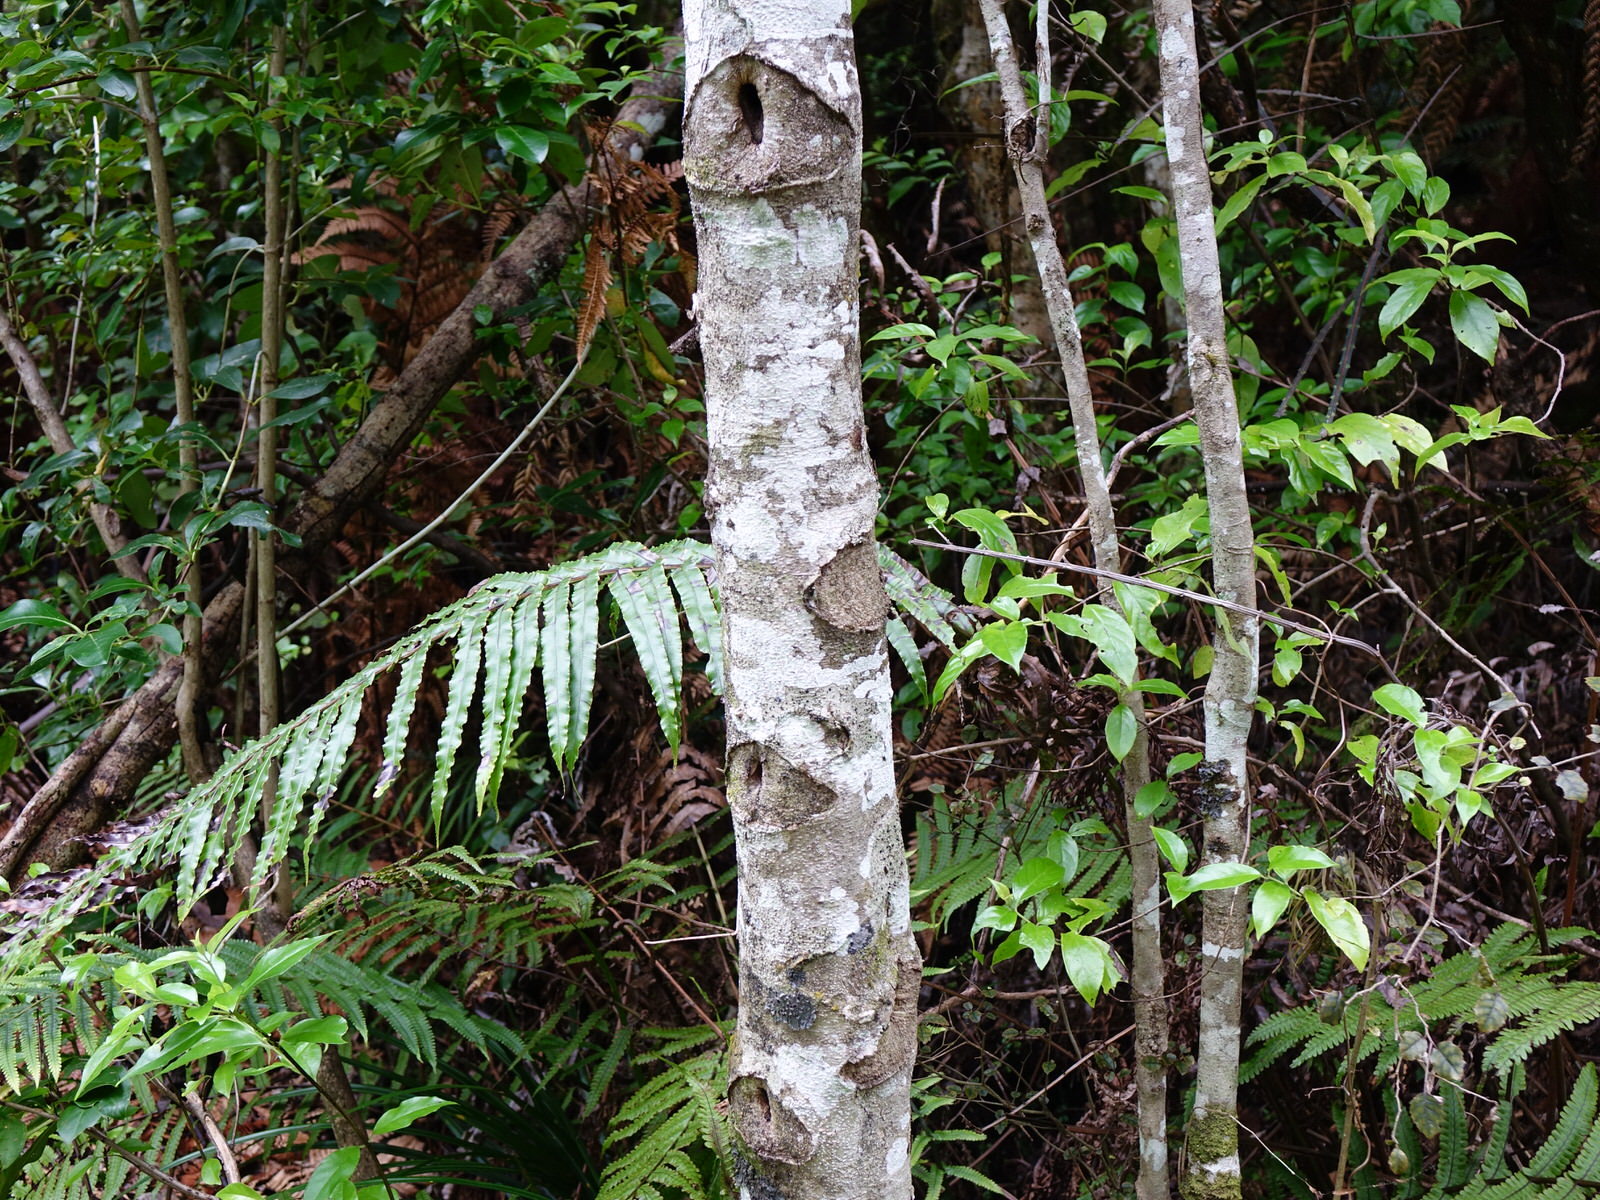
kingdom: Animalia
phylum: Arthropoda
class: Insecta
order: Lepidoptera
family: Hepialidae
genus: Aenetus
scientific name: Aenetus virescens
